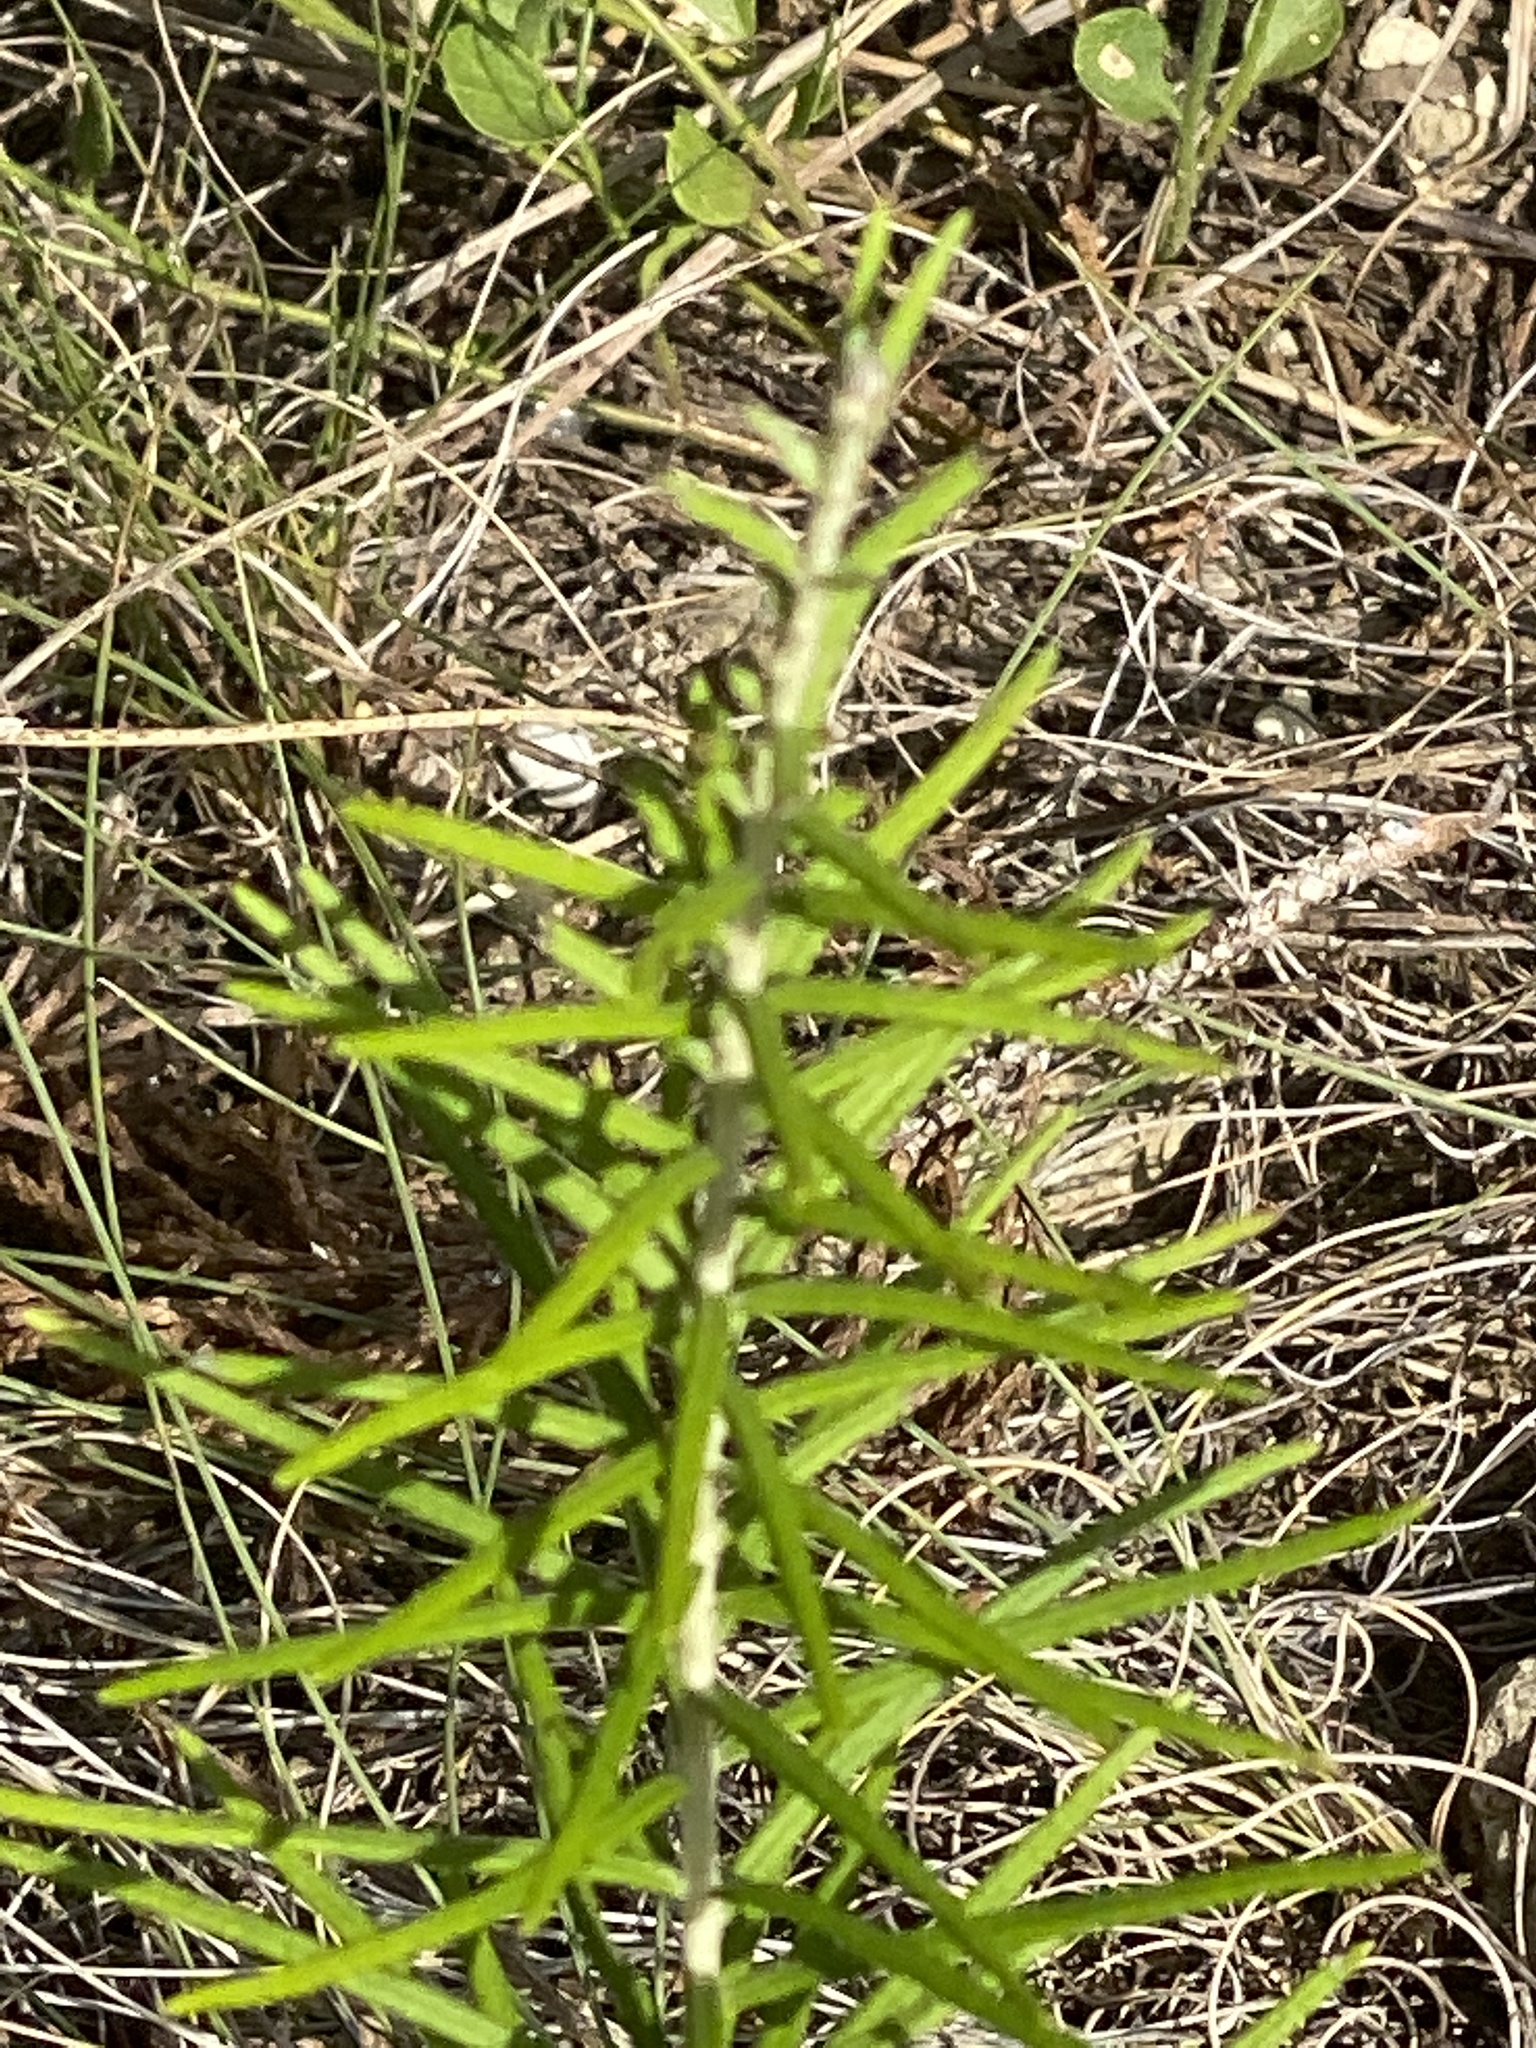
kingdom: Plantae
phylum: Tracheophyta
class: Magnoliopsida
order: Asterales
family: Asteraceae
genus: Vernonia
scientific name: Vernonia lindheimeri
